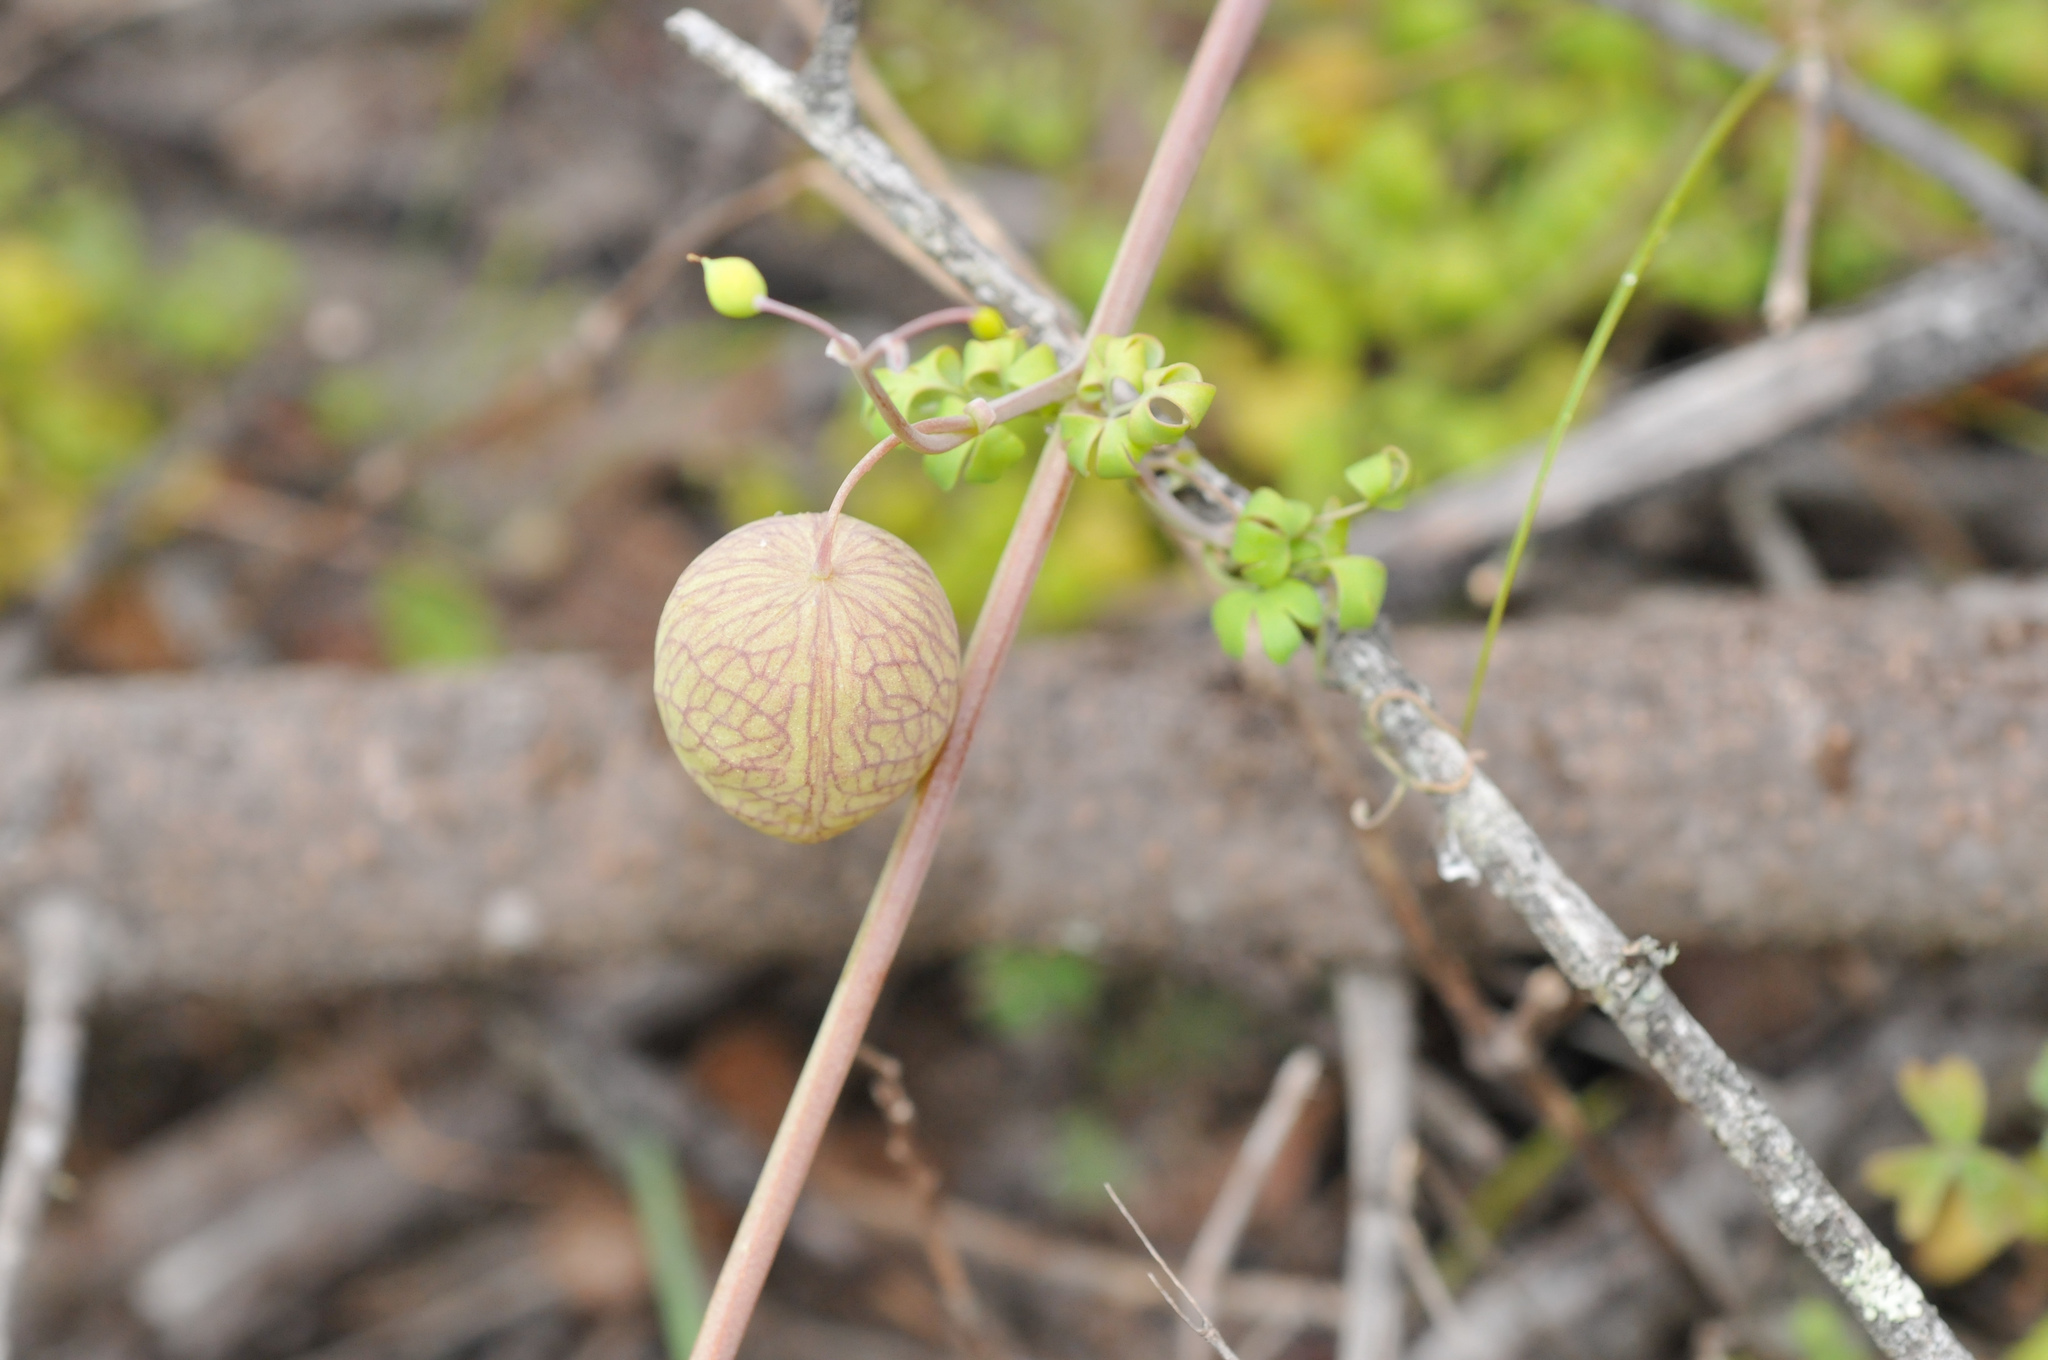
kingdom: Plantae
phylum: Tracheophyta
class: Magnoliopsida
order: Ranunculales
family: Papaveraceae
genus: Cysticapnos
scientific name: Cysticapnos vesicaria
